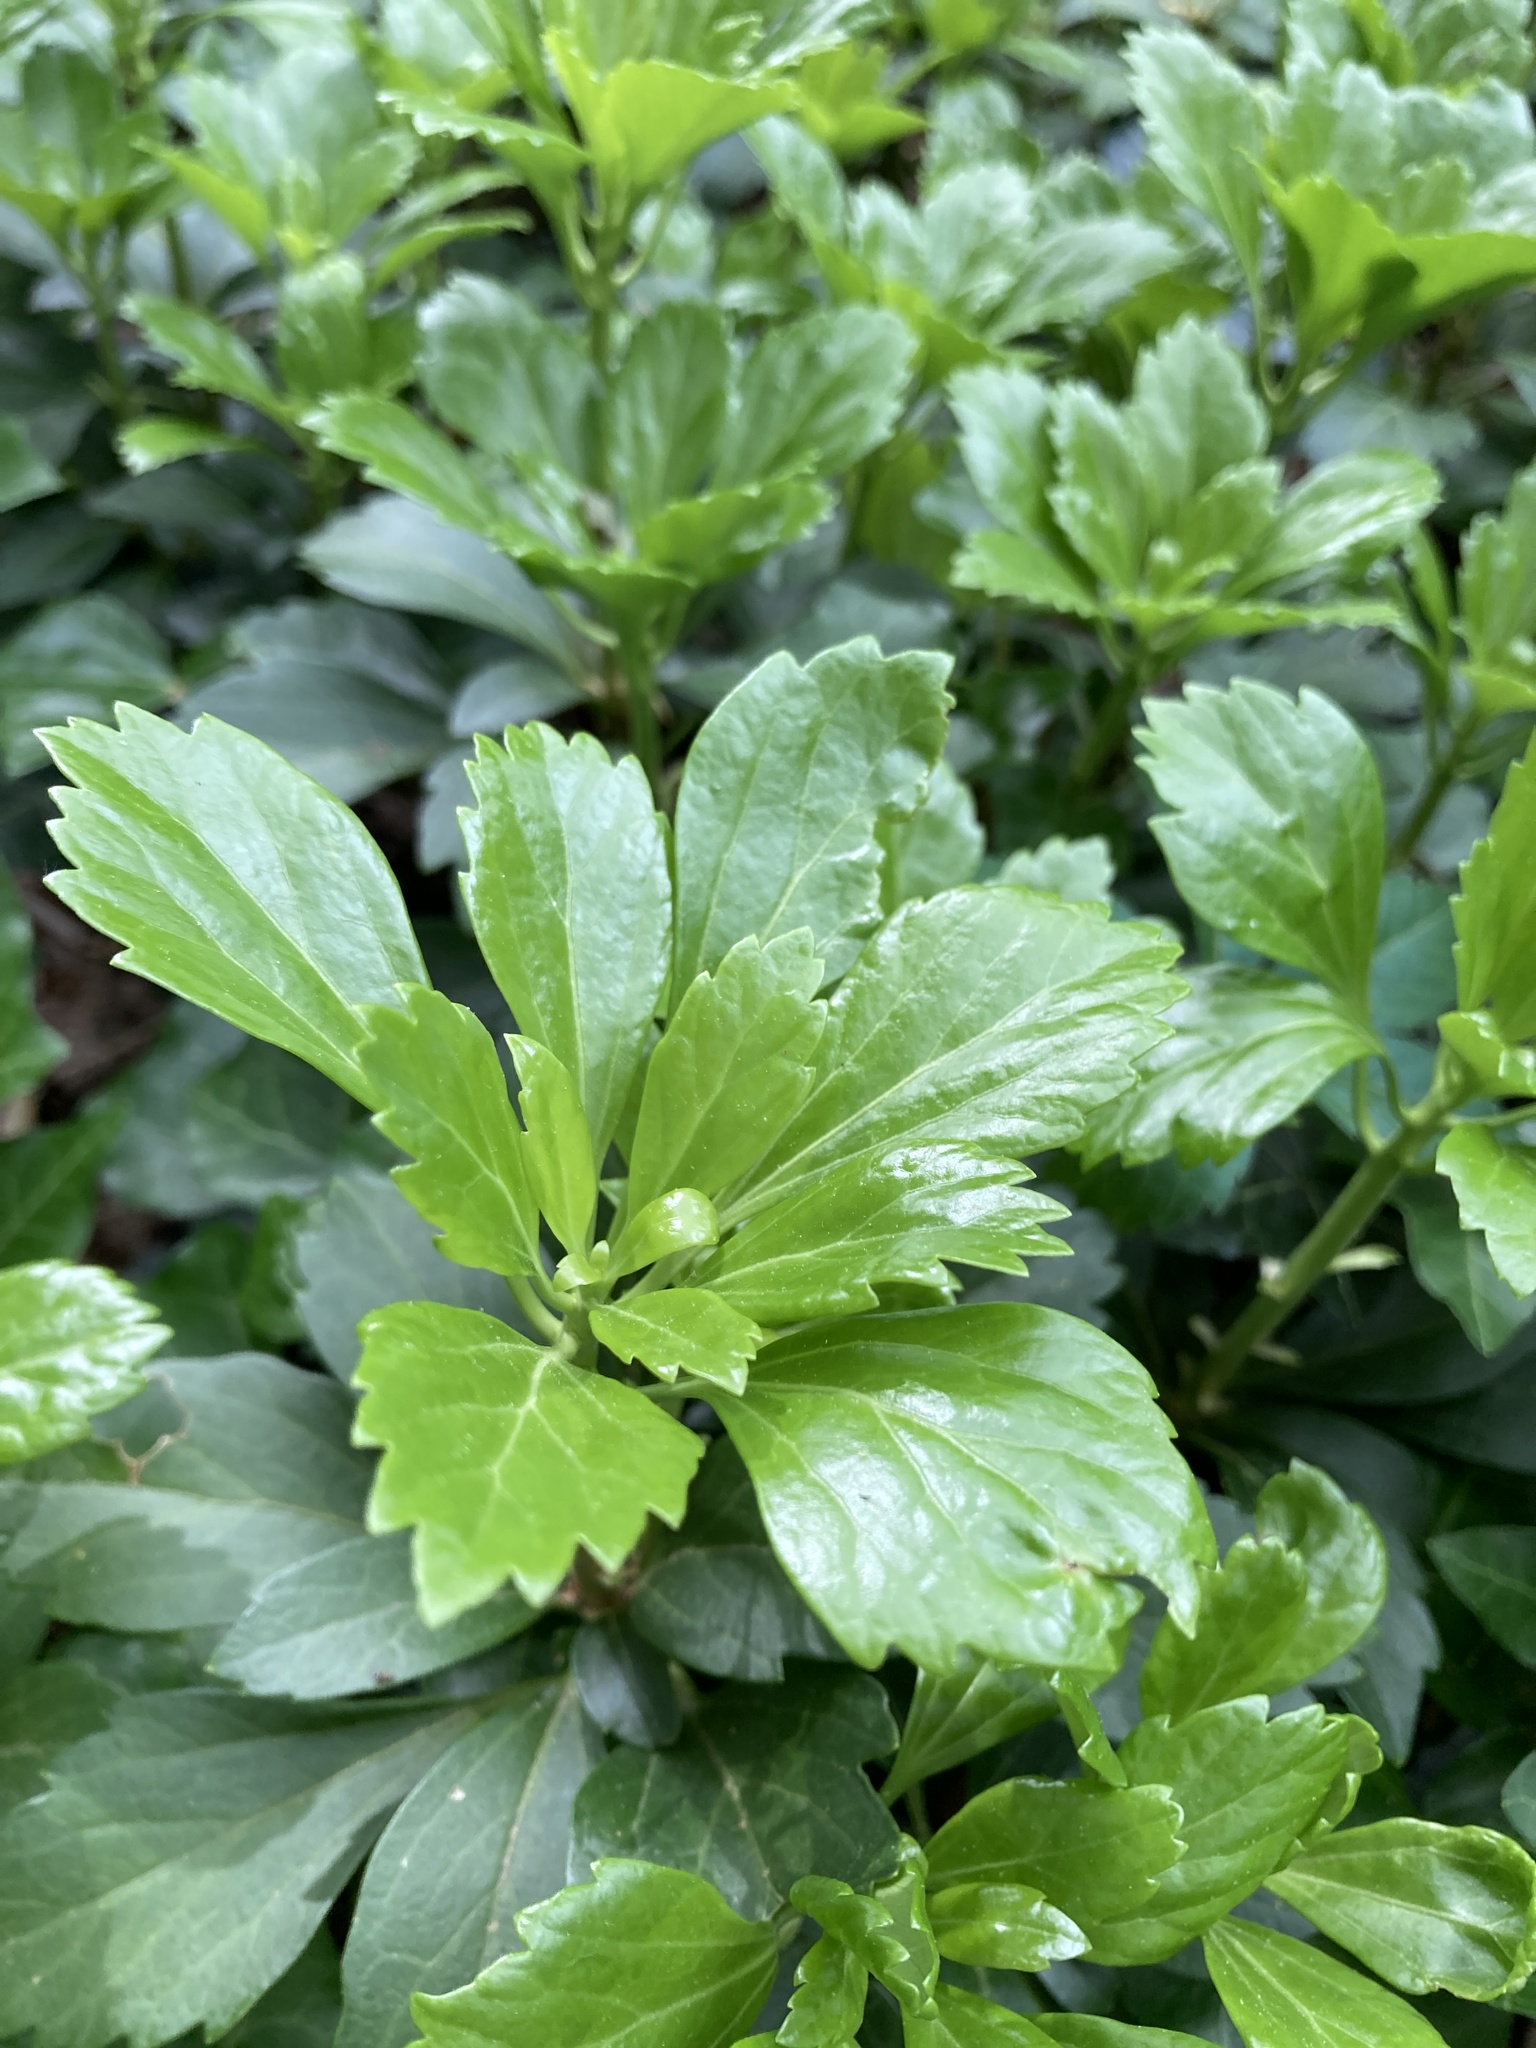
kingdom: Plantae
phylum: Tracheophyta
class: Magnoliopsida
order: Buxales
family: Buxaceae
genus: Pachysandra
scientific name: Pachysandra terminalis
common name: Japanese pachysandra
